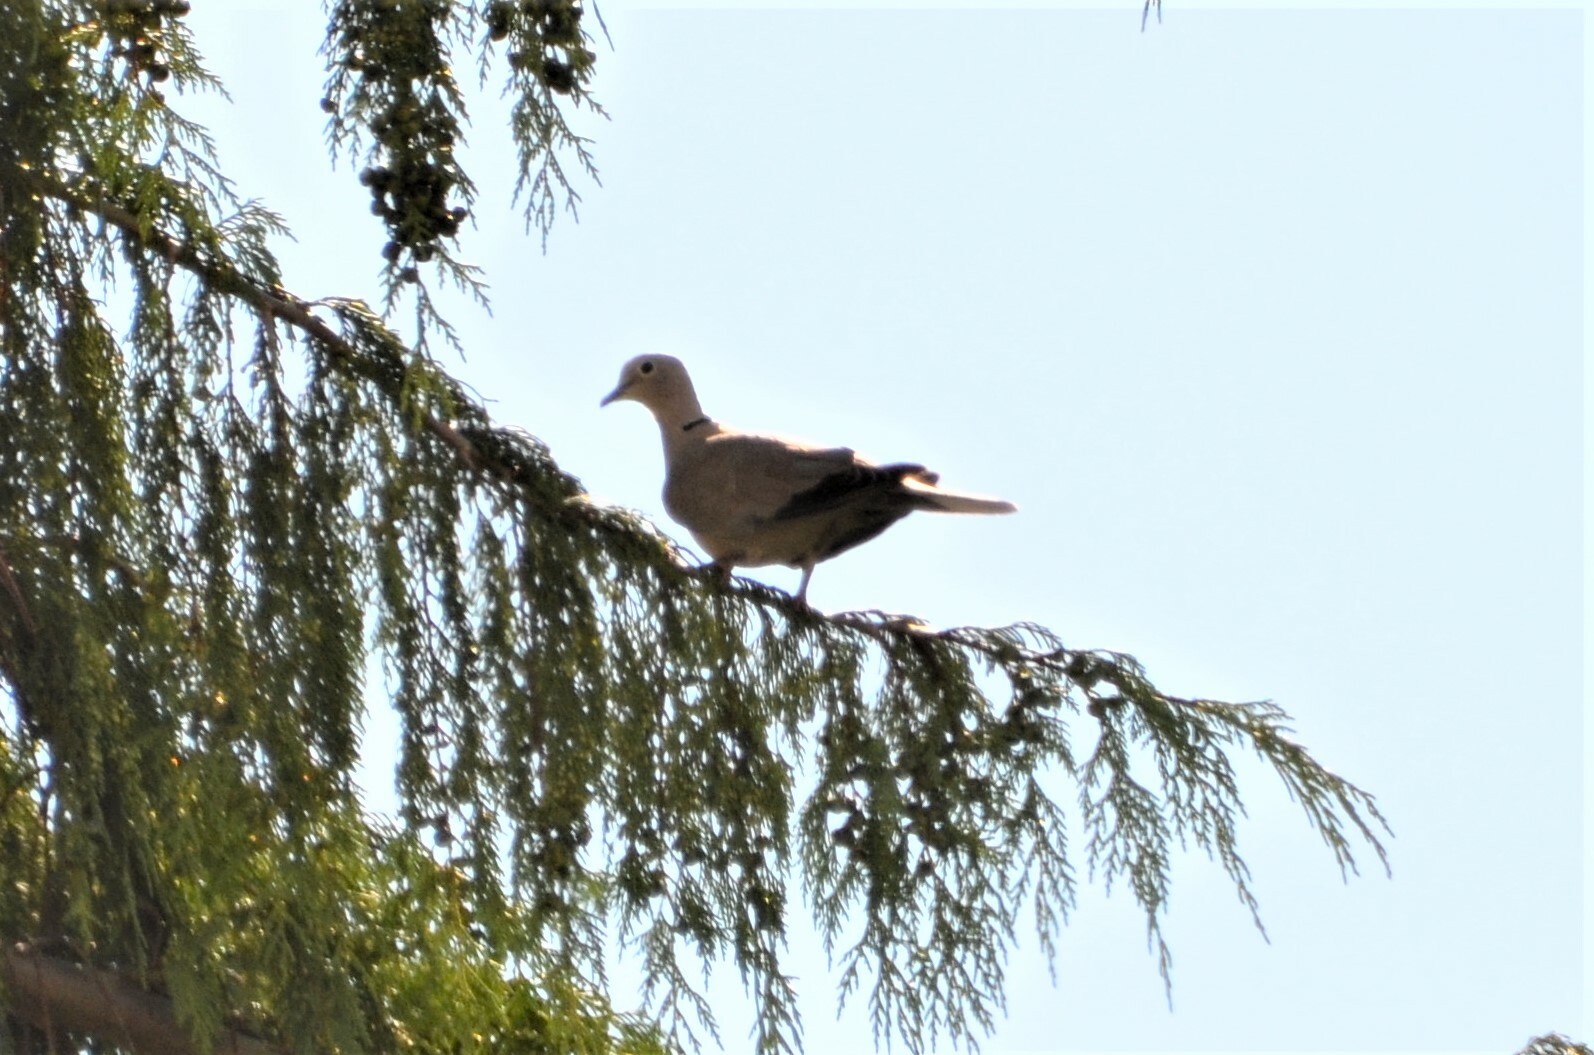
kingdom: Animalia
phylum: Chordata
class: Aves
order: Columbiformes
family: Columbidae
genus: Streptopelia
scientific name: Streptopelia decaocto
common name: Eurasian collared dove
